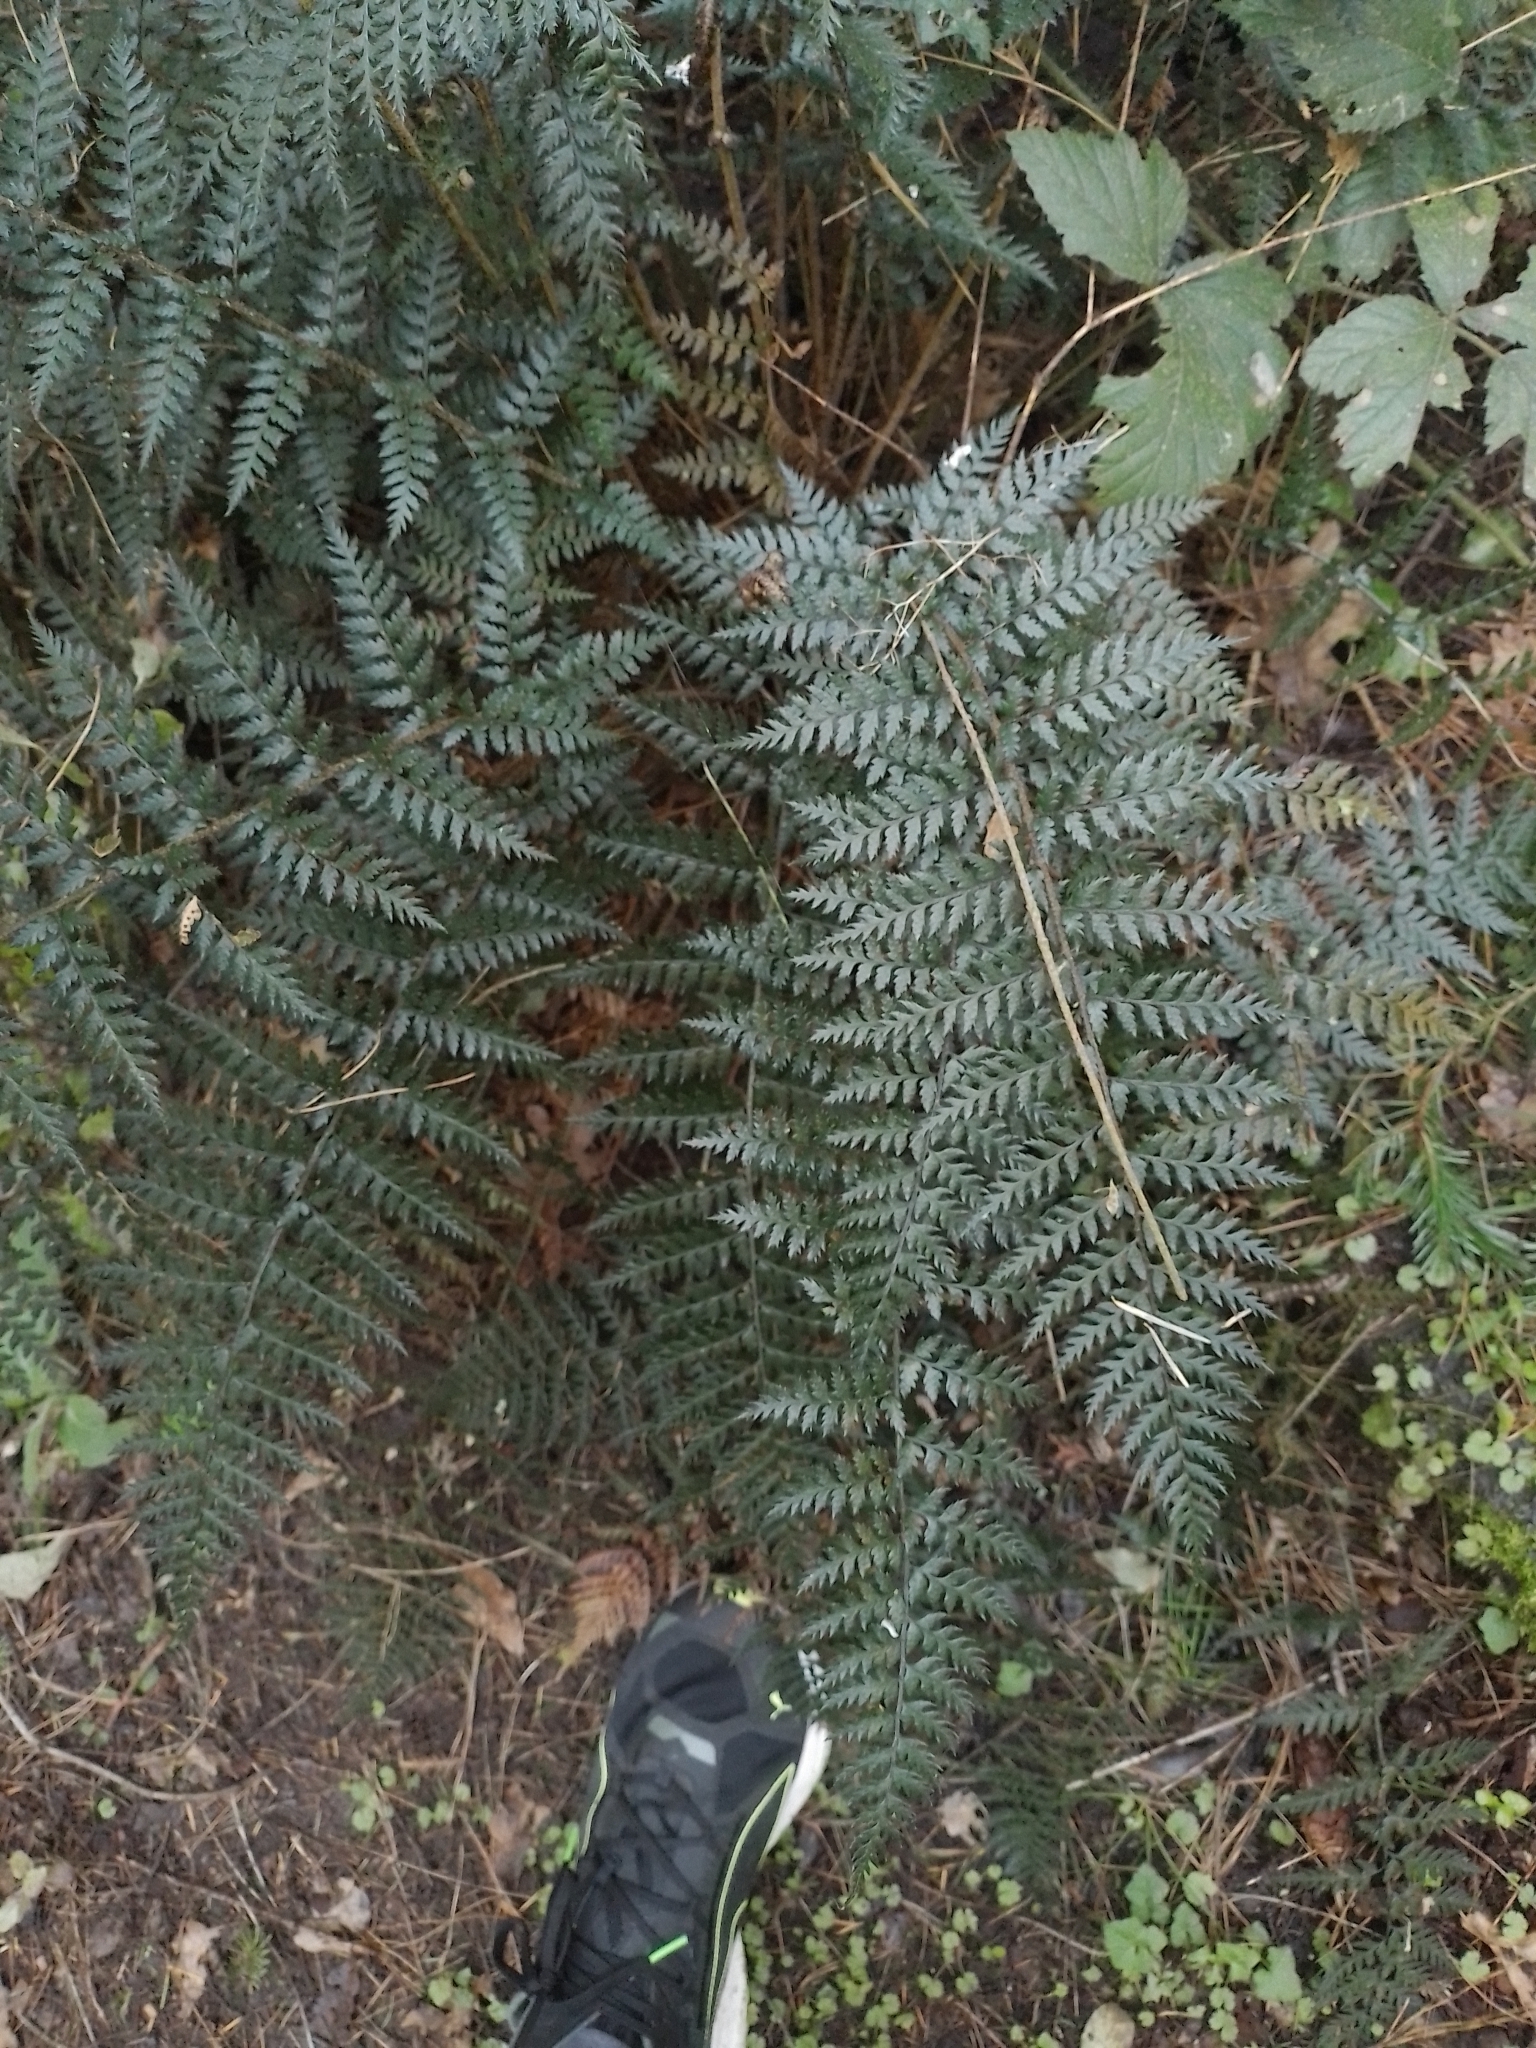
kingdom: Plantae
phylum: Tracheophyta
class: Polypodiopsida
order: Polypodiales
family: Dryopteridaceae
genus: Polystichum
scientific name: Polystichum oculatum
